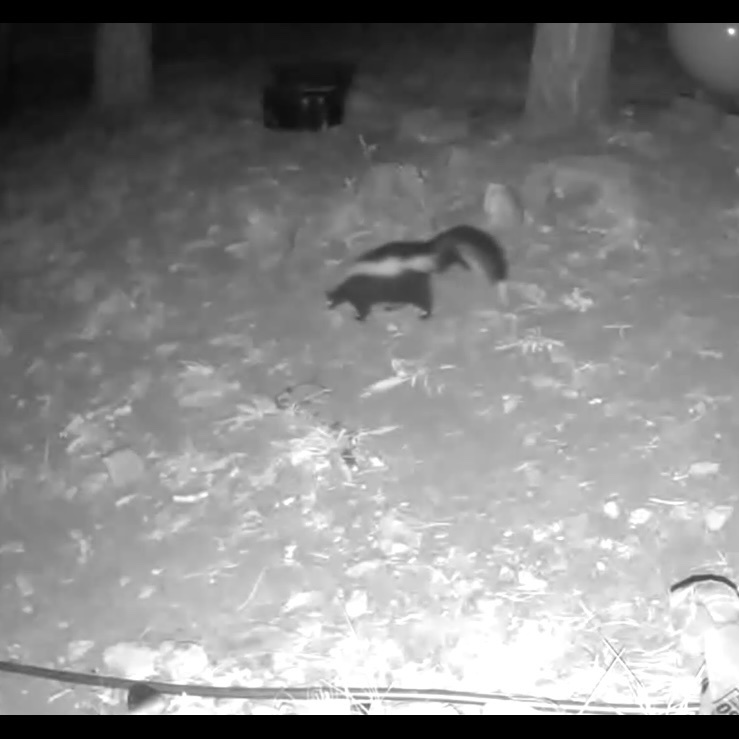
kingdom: Animalia
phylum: Chordata
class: Mammalia
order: Carnivora
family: Mephitidae
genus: Mephitis
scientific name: Mephitis mephitis
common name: Striped skunk
